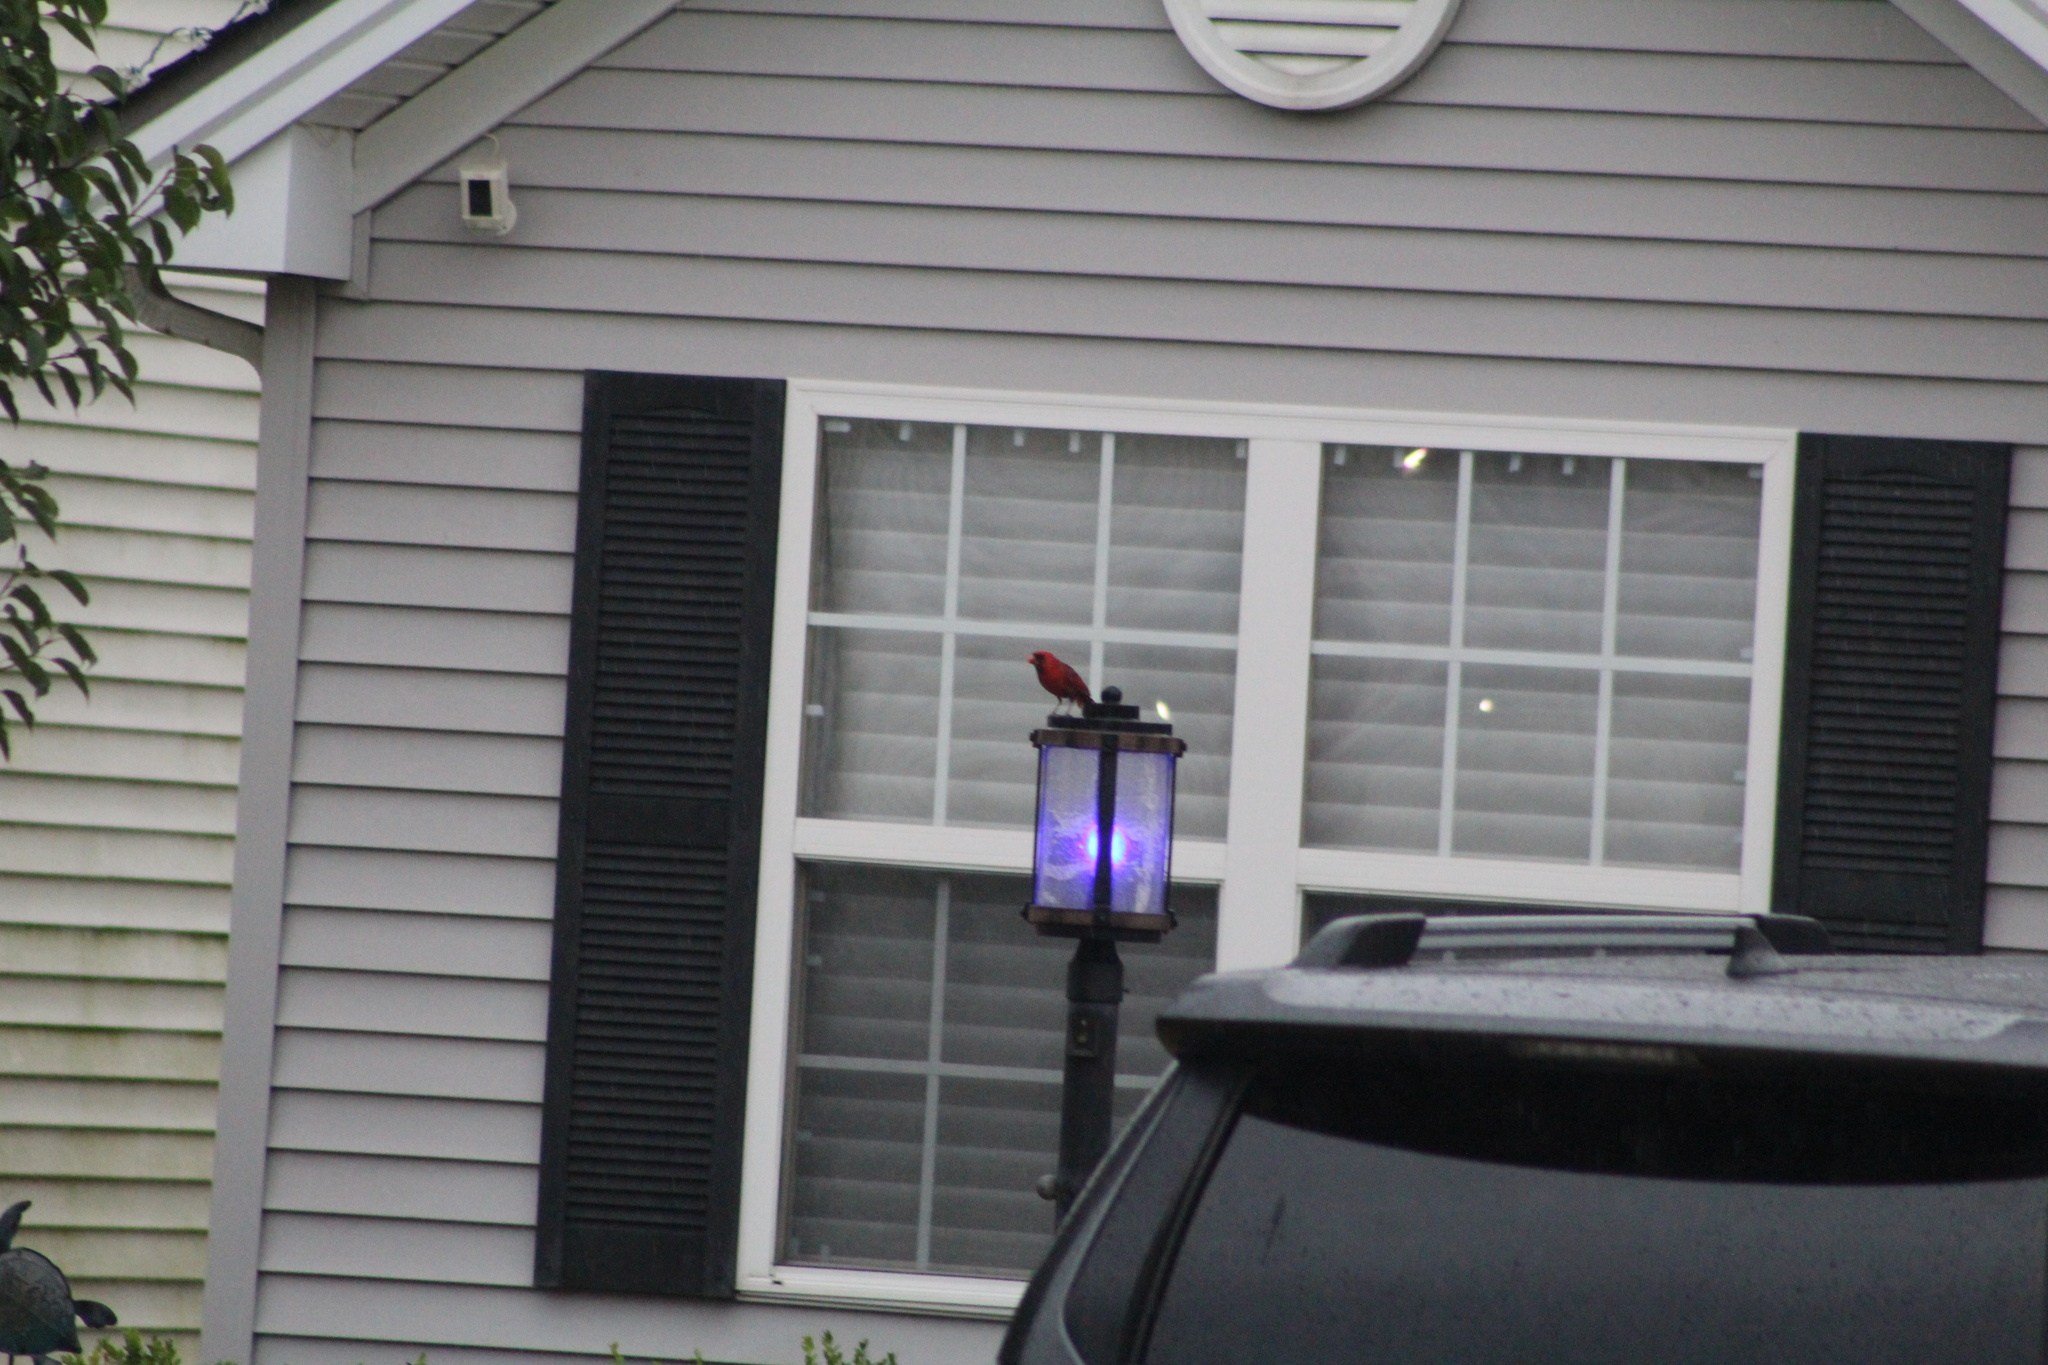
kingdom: Animalia
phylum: Chordata
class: Aves
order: Passeriformes
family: Cardinalidae
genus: Cardinalis
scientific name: Cardinalis cardinalis
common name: Northern cardinal
